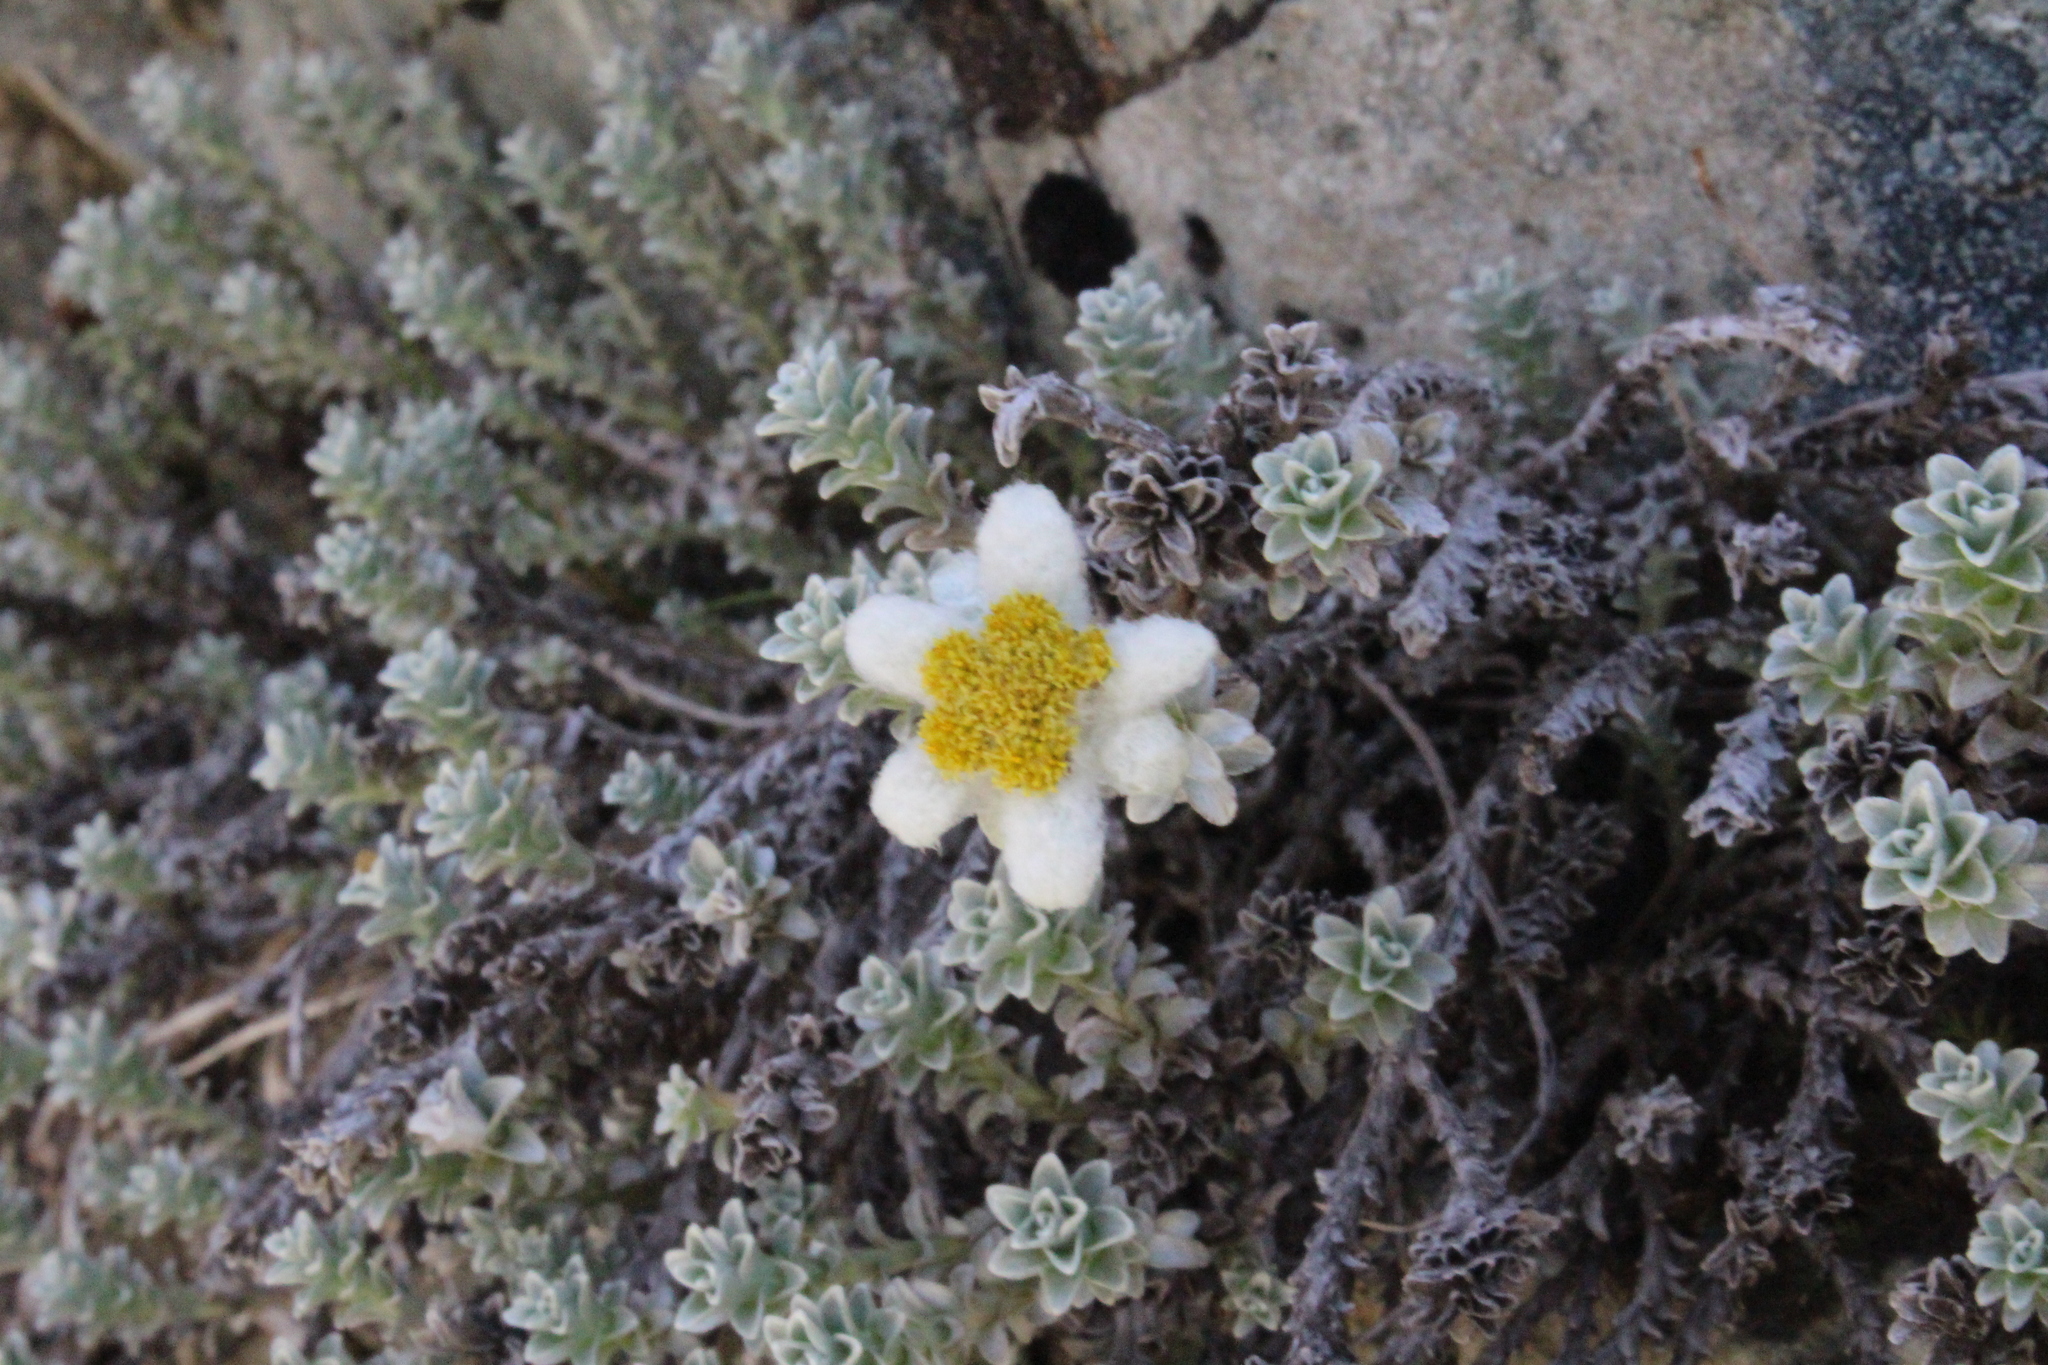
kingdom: Plantae
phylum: Tracheophyta
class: Magnoliopsida
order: Asterales
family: Asteraceae
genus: Leucogenes
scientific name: Leucogenes grandiceps
